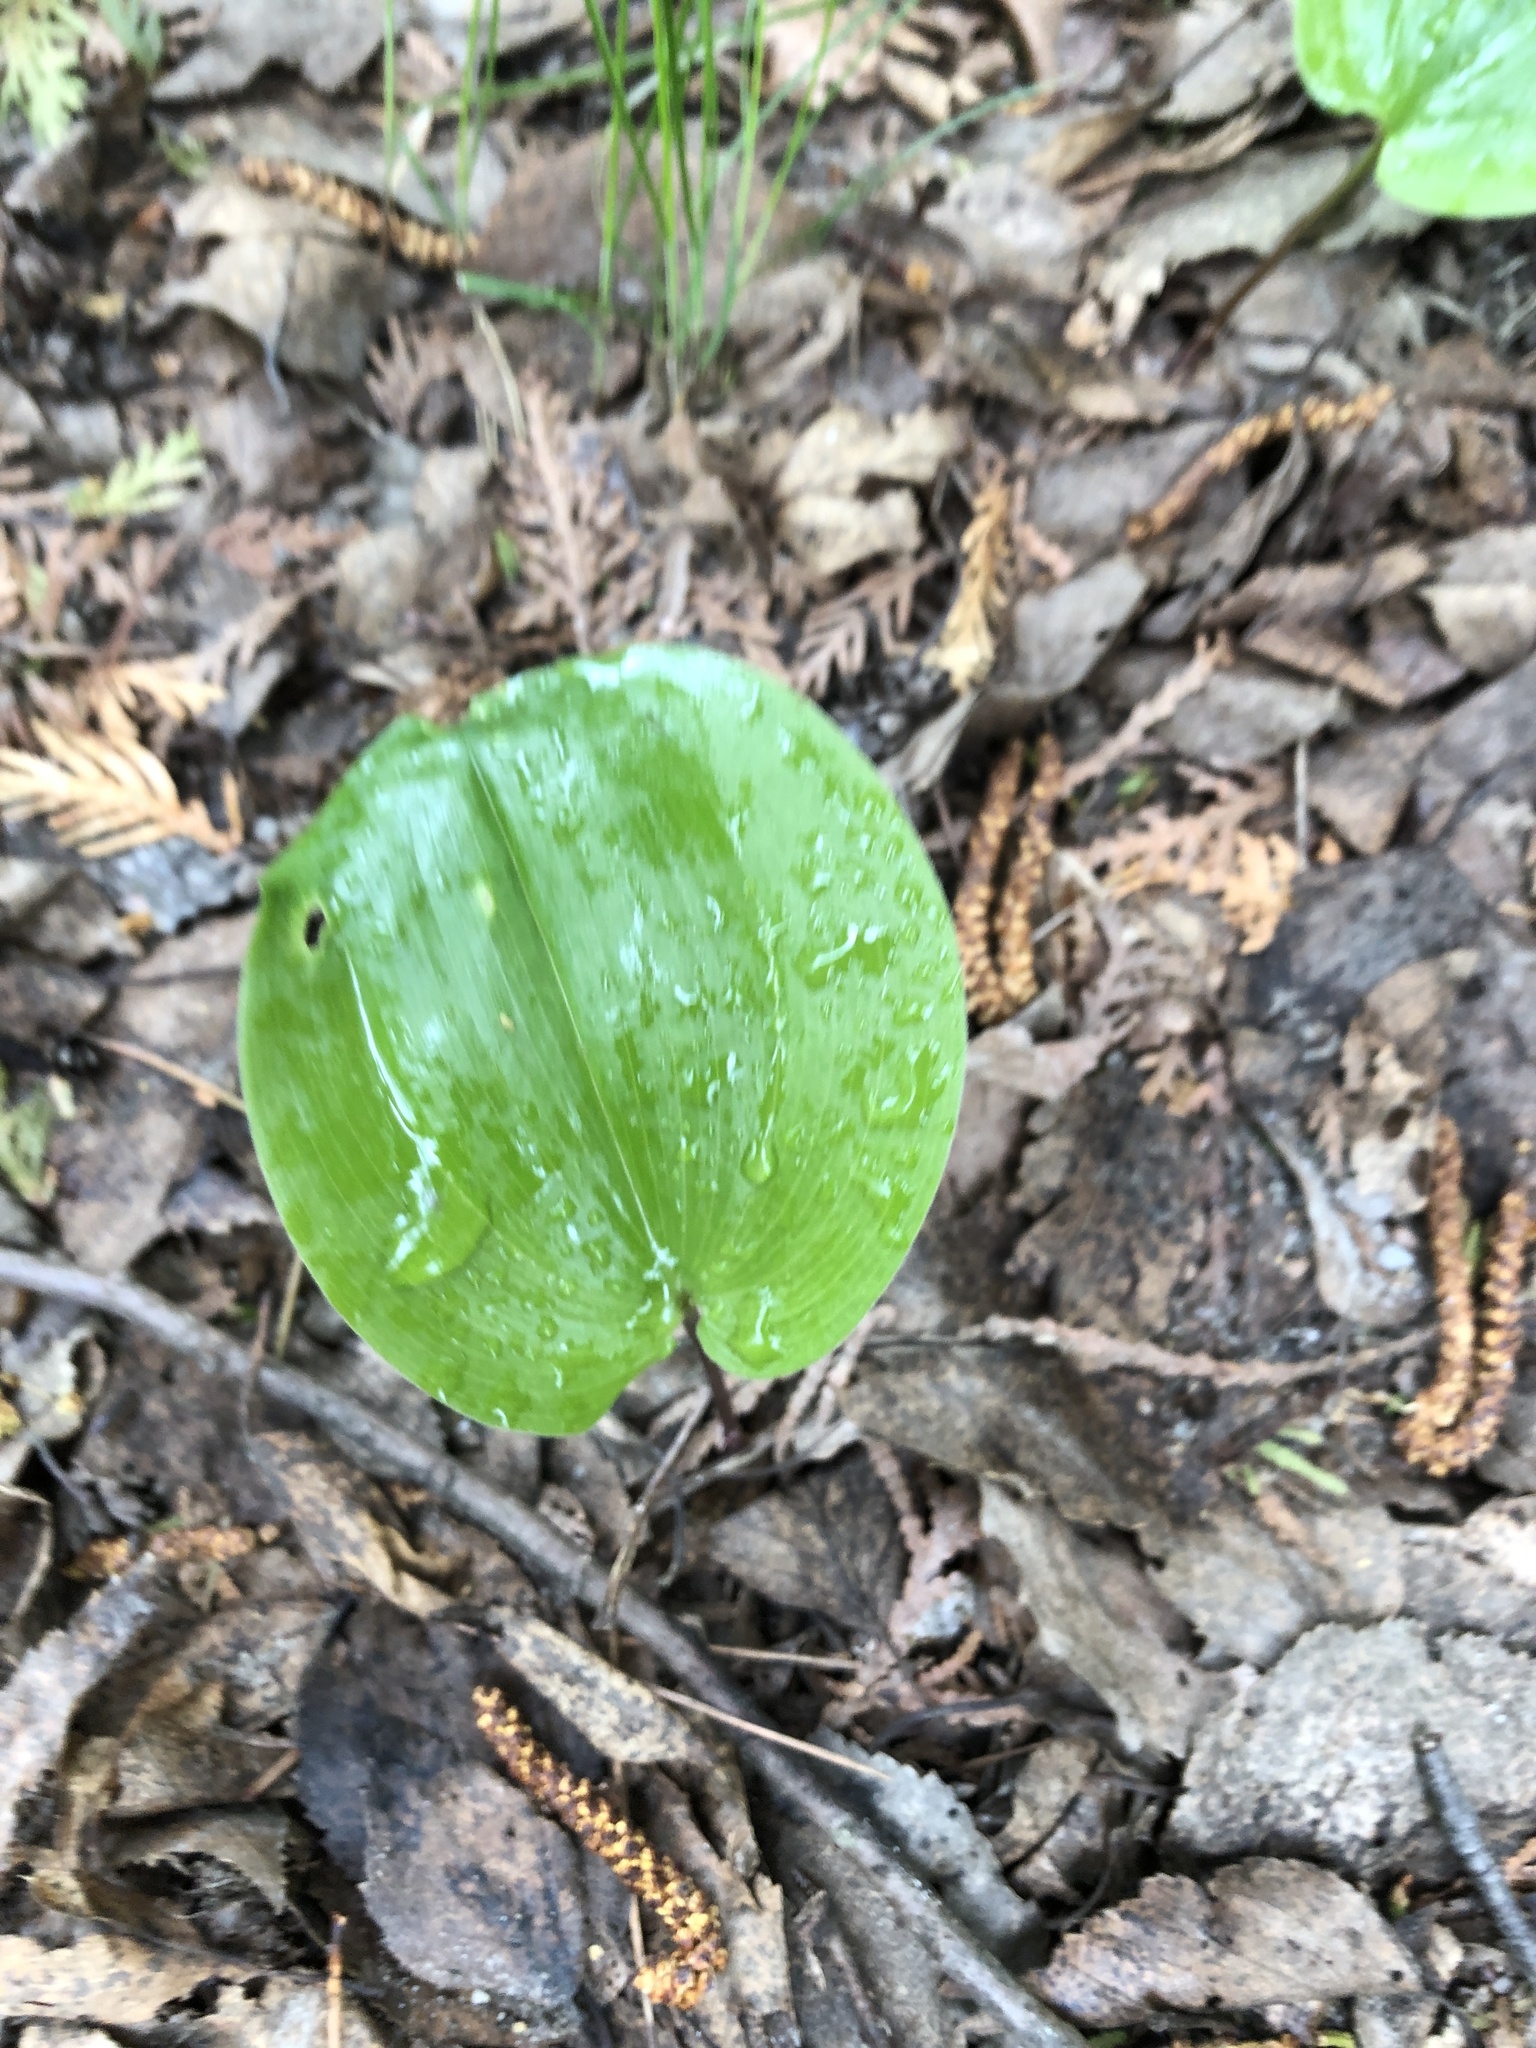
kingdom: Plantae
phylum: Tracheophyta
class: Liliopsida
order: Asparagales
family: Asparagaceae
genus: Maianthemum
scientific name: Maianthemum canadense
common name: False lily-of-the-valley
